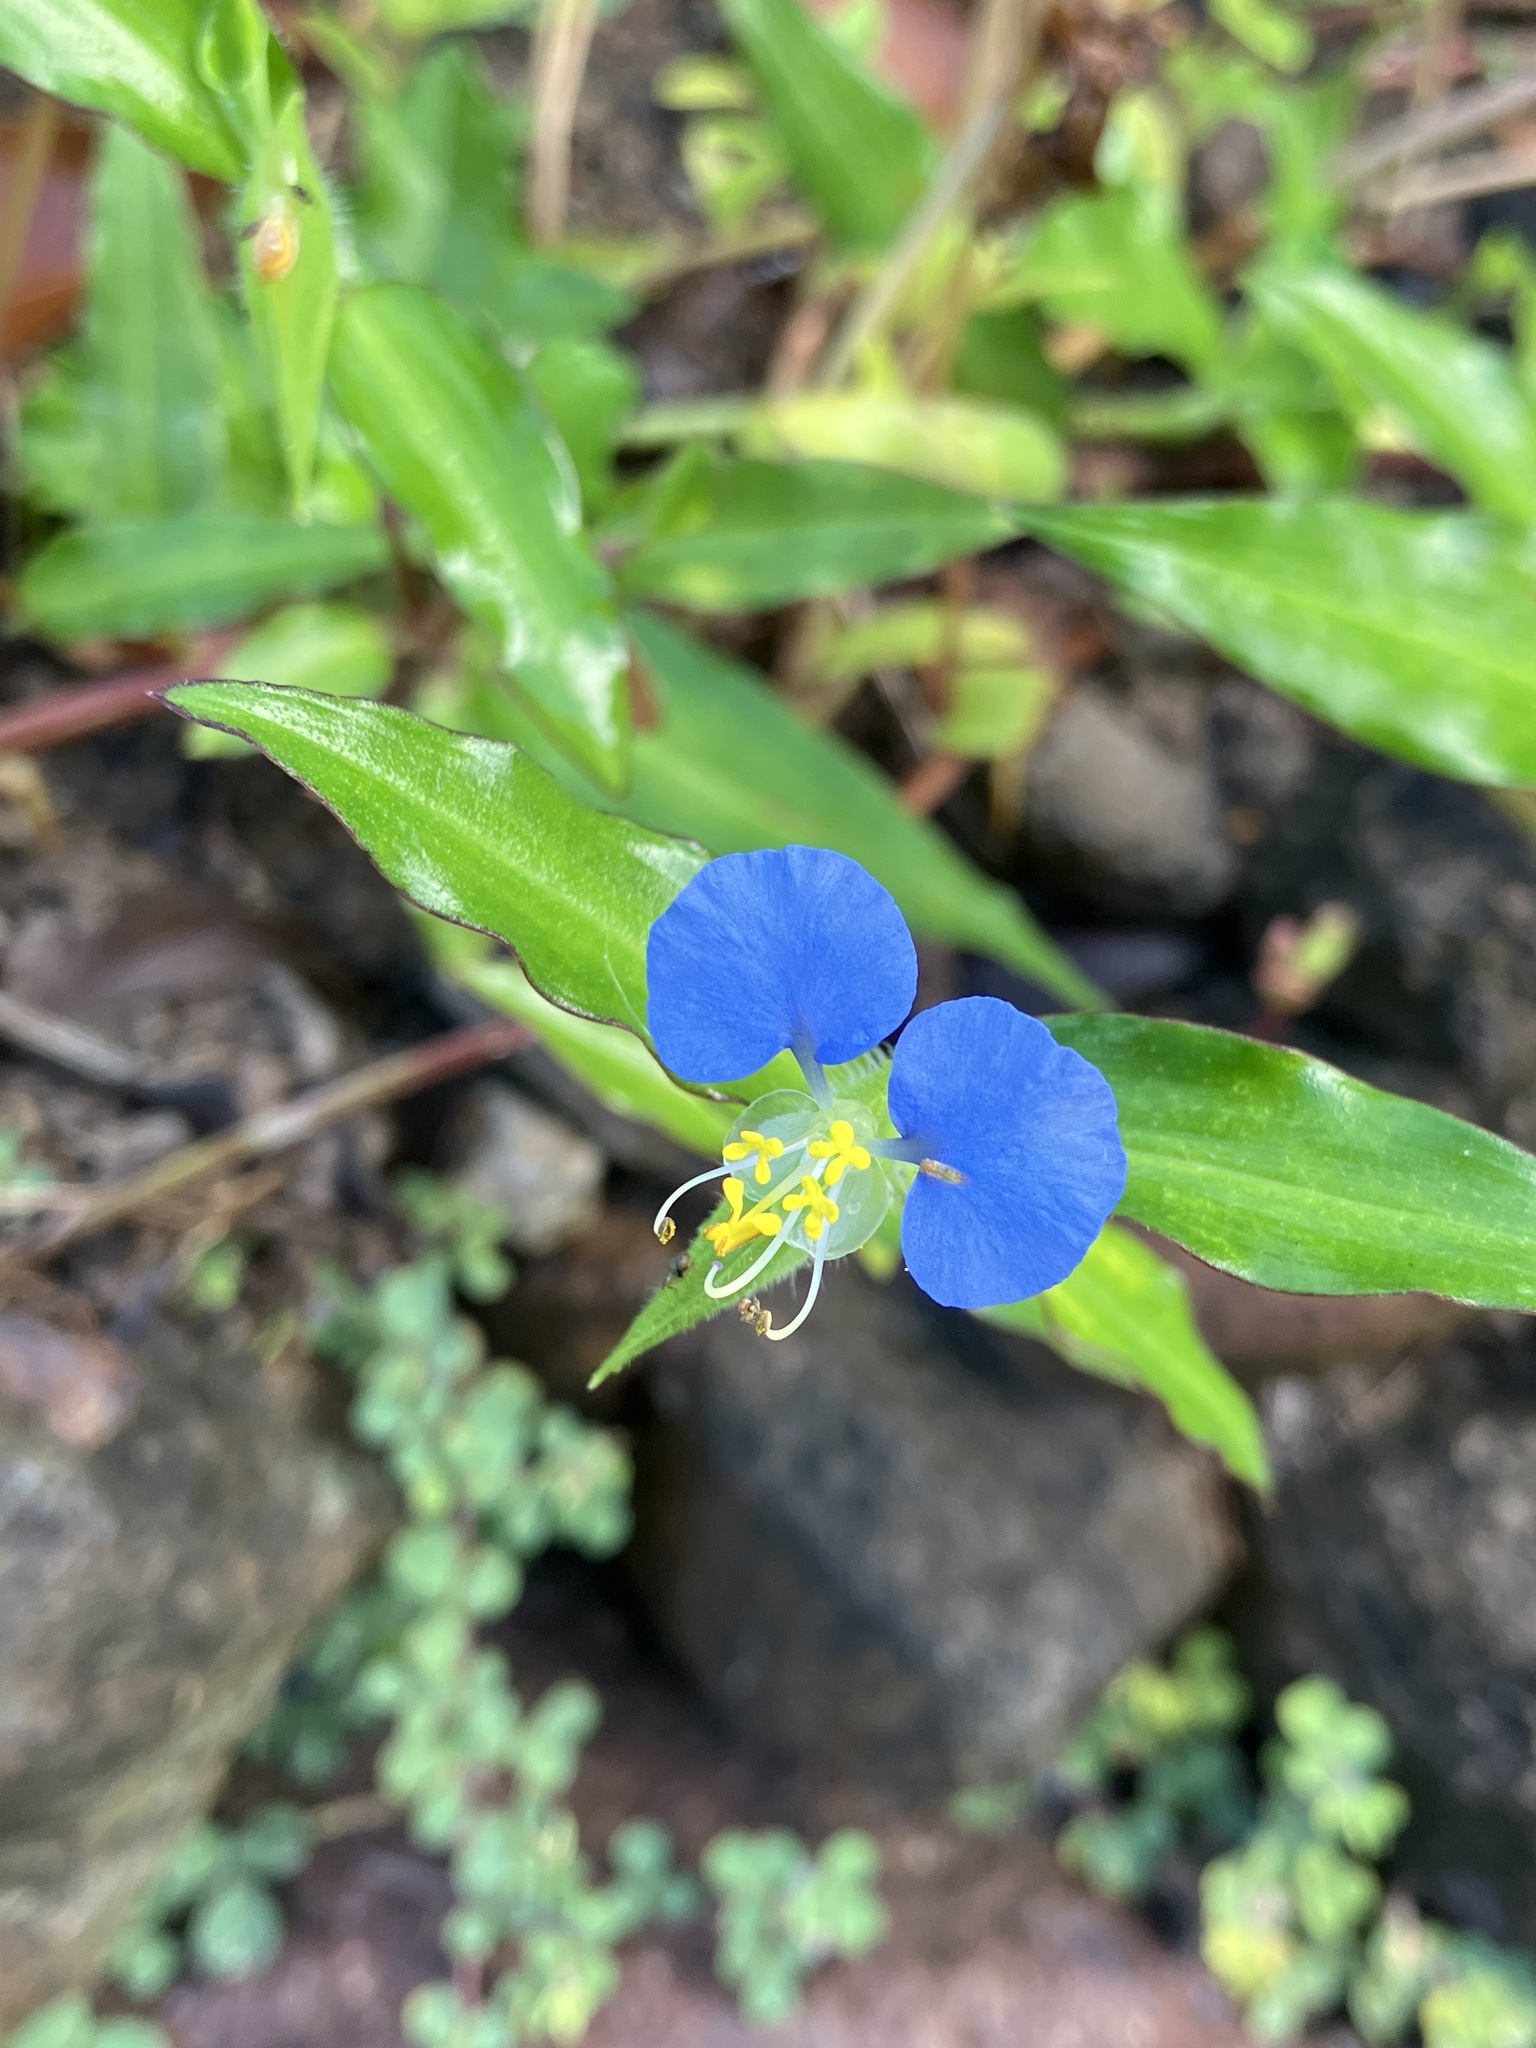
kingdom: Plantae
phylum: Tracheophyta
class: Liliopsida
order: Commelinales
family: Commelinaceae
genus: Commelina
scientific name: Commelina erecta
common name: Blousel blommetjie
